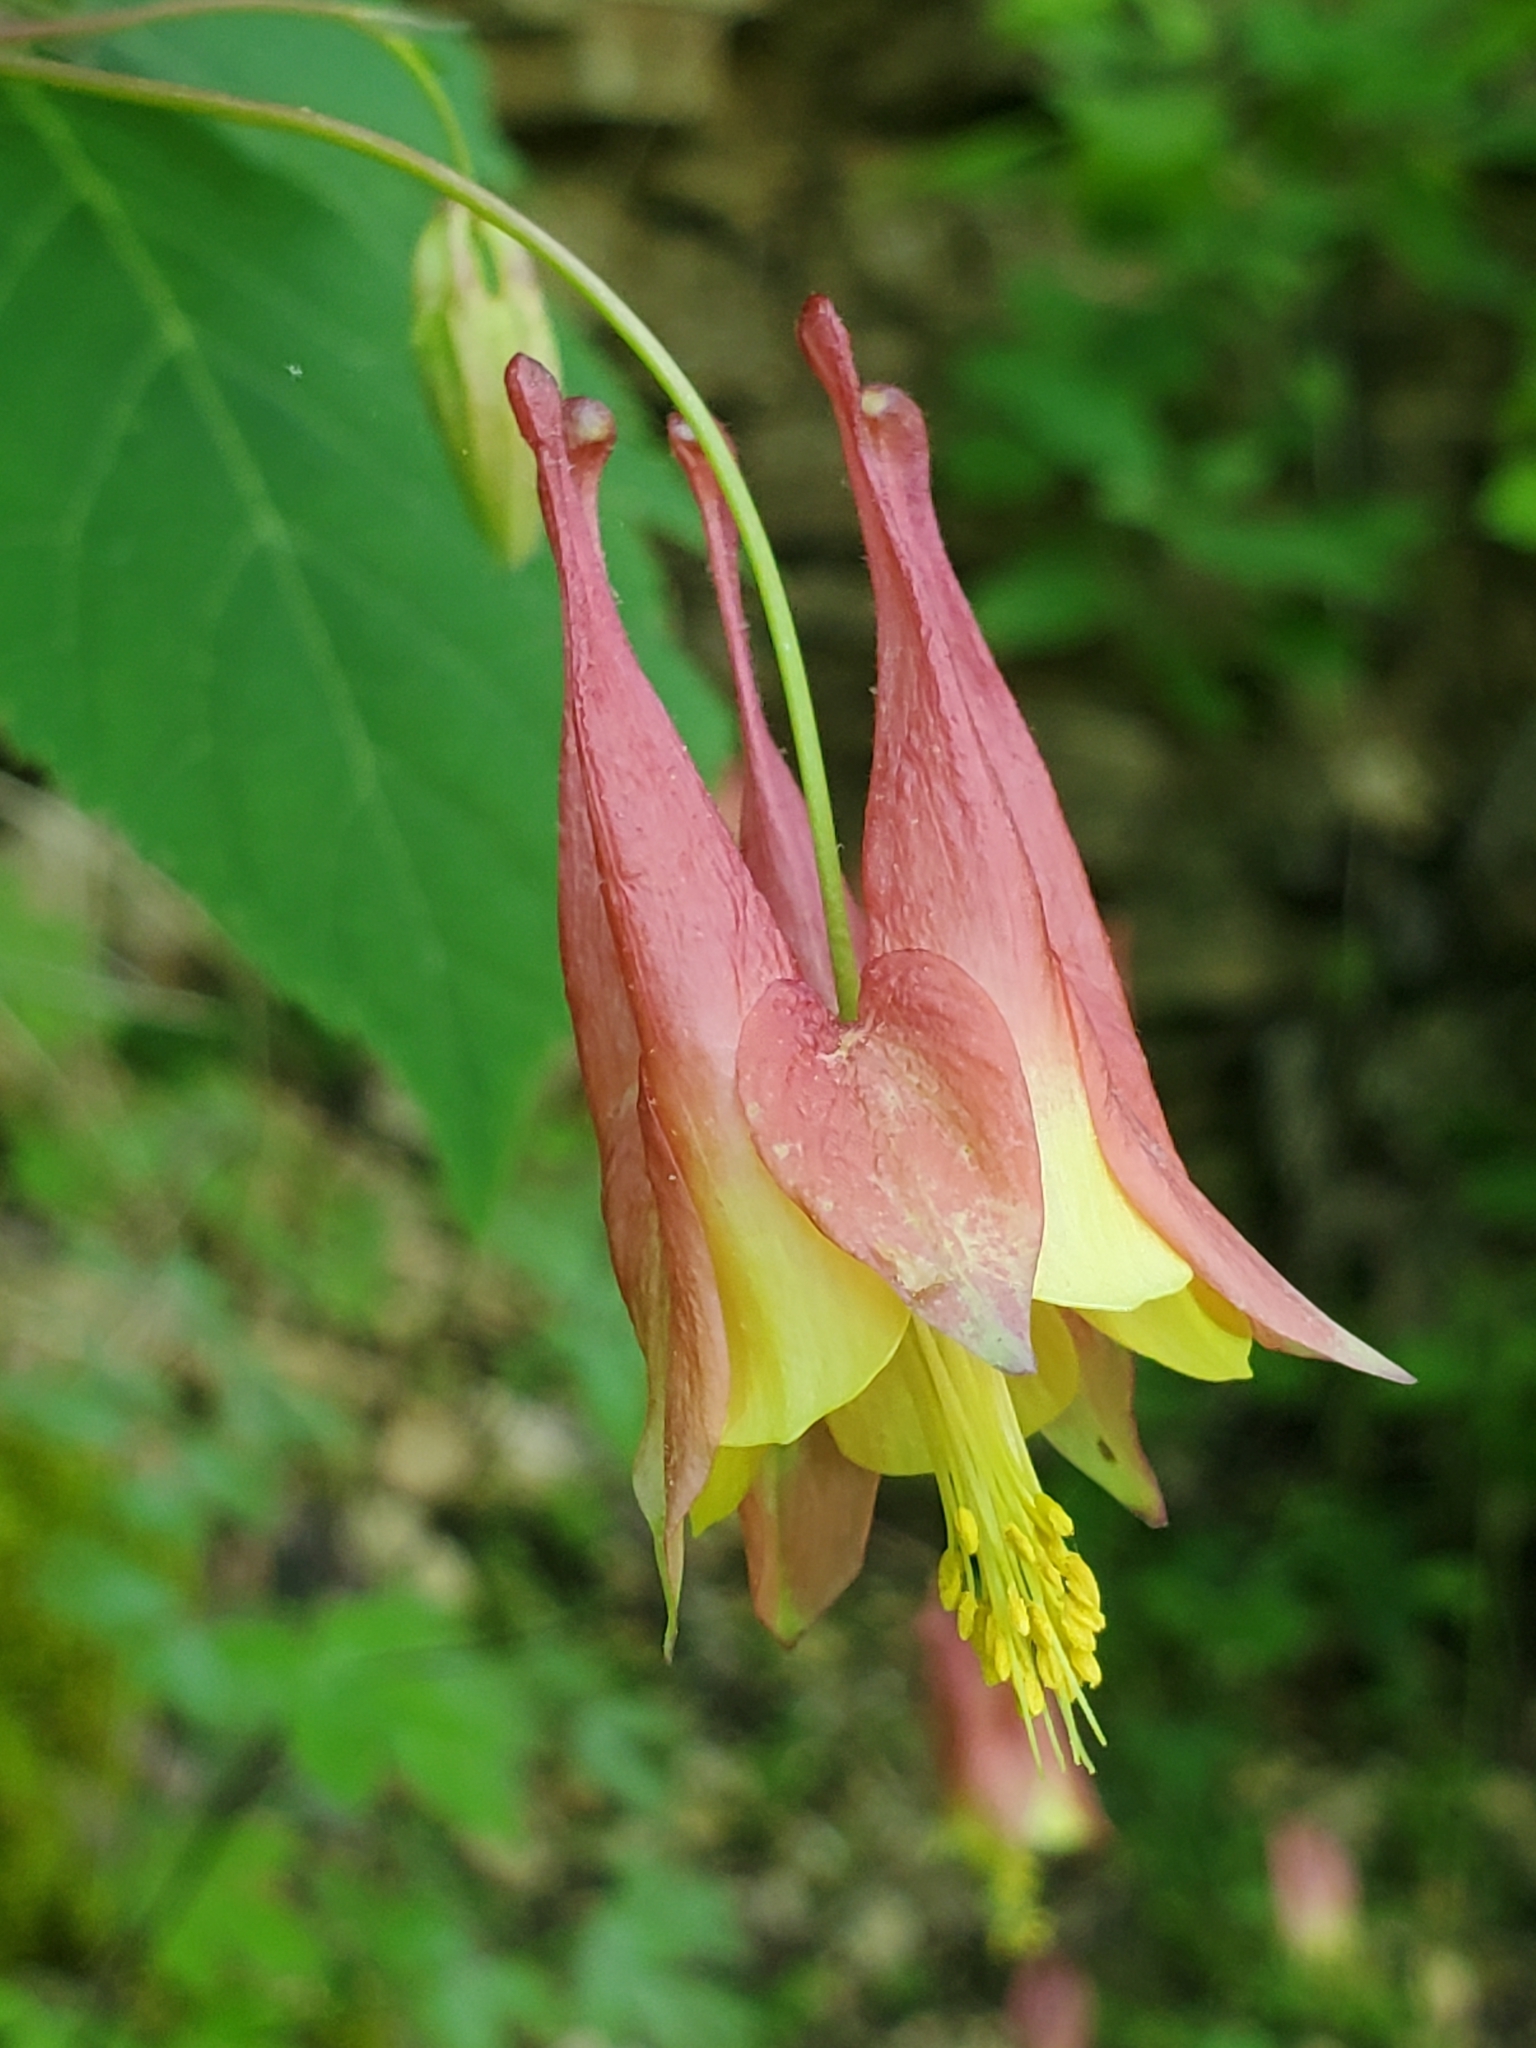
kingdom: Plantae
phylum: Tracheophyta
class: Magnoliopsida
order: Ranunculales
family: Ranunculaceae
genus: Aquilegia
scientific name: Aquilegia canadensis
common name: American columbine
